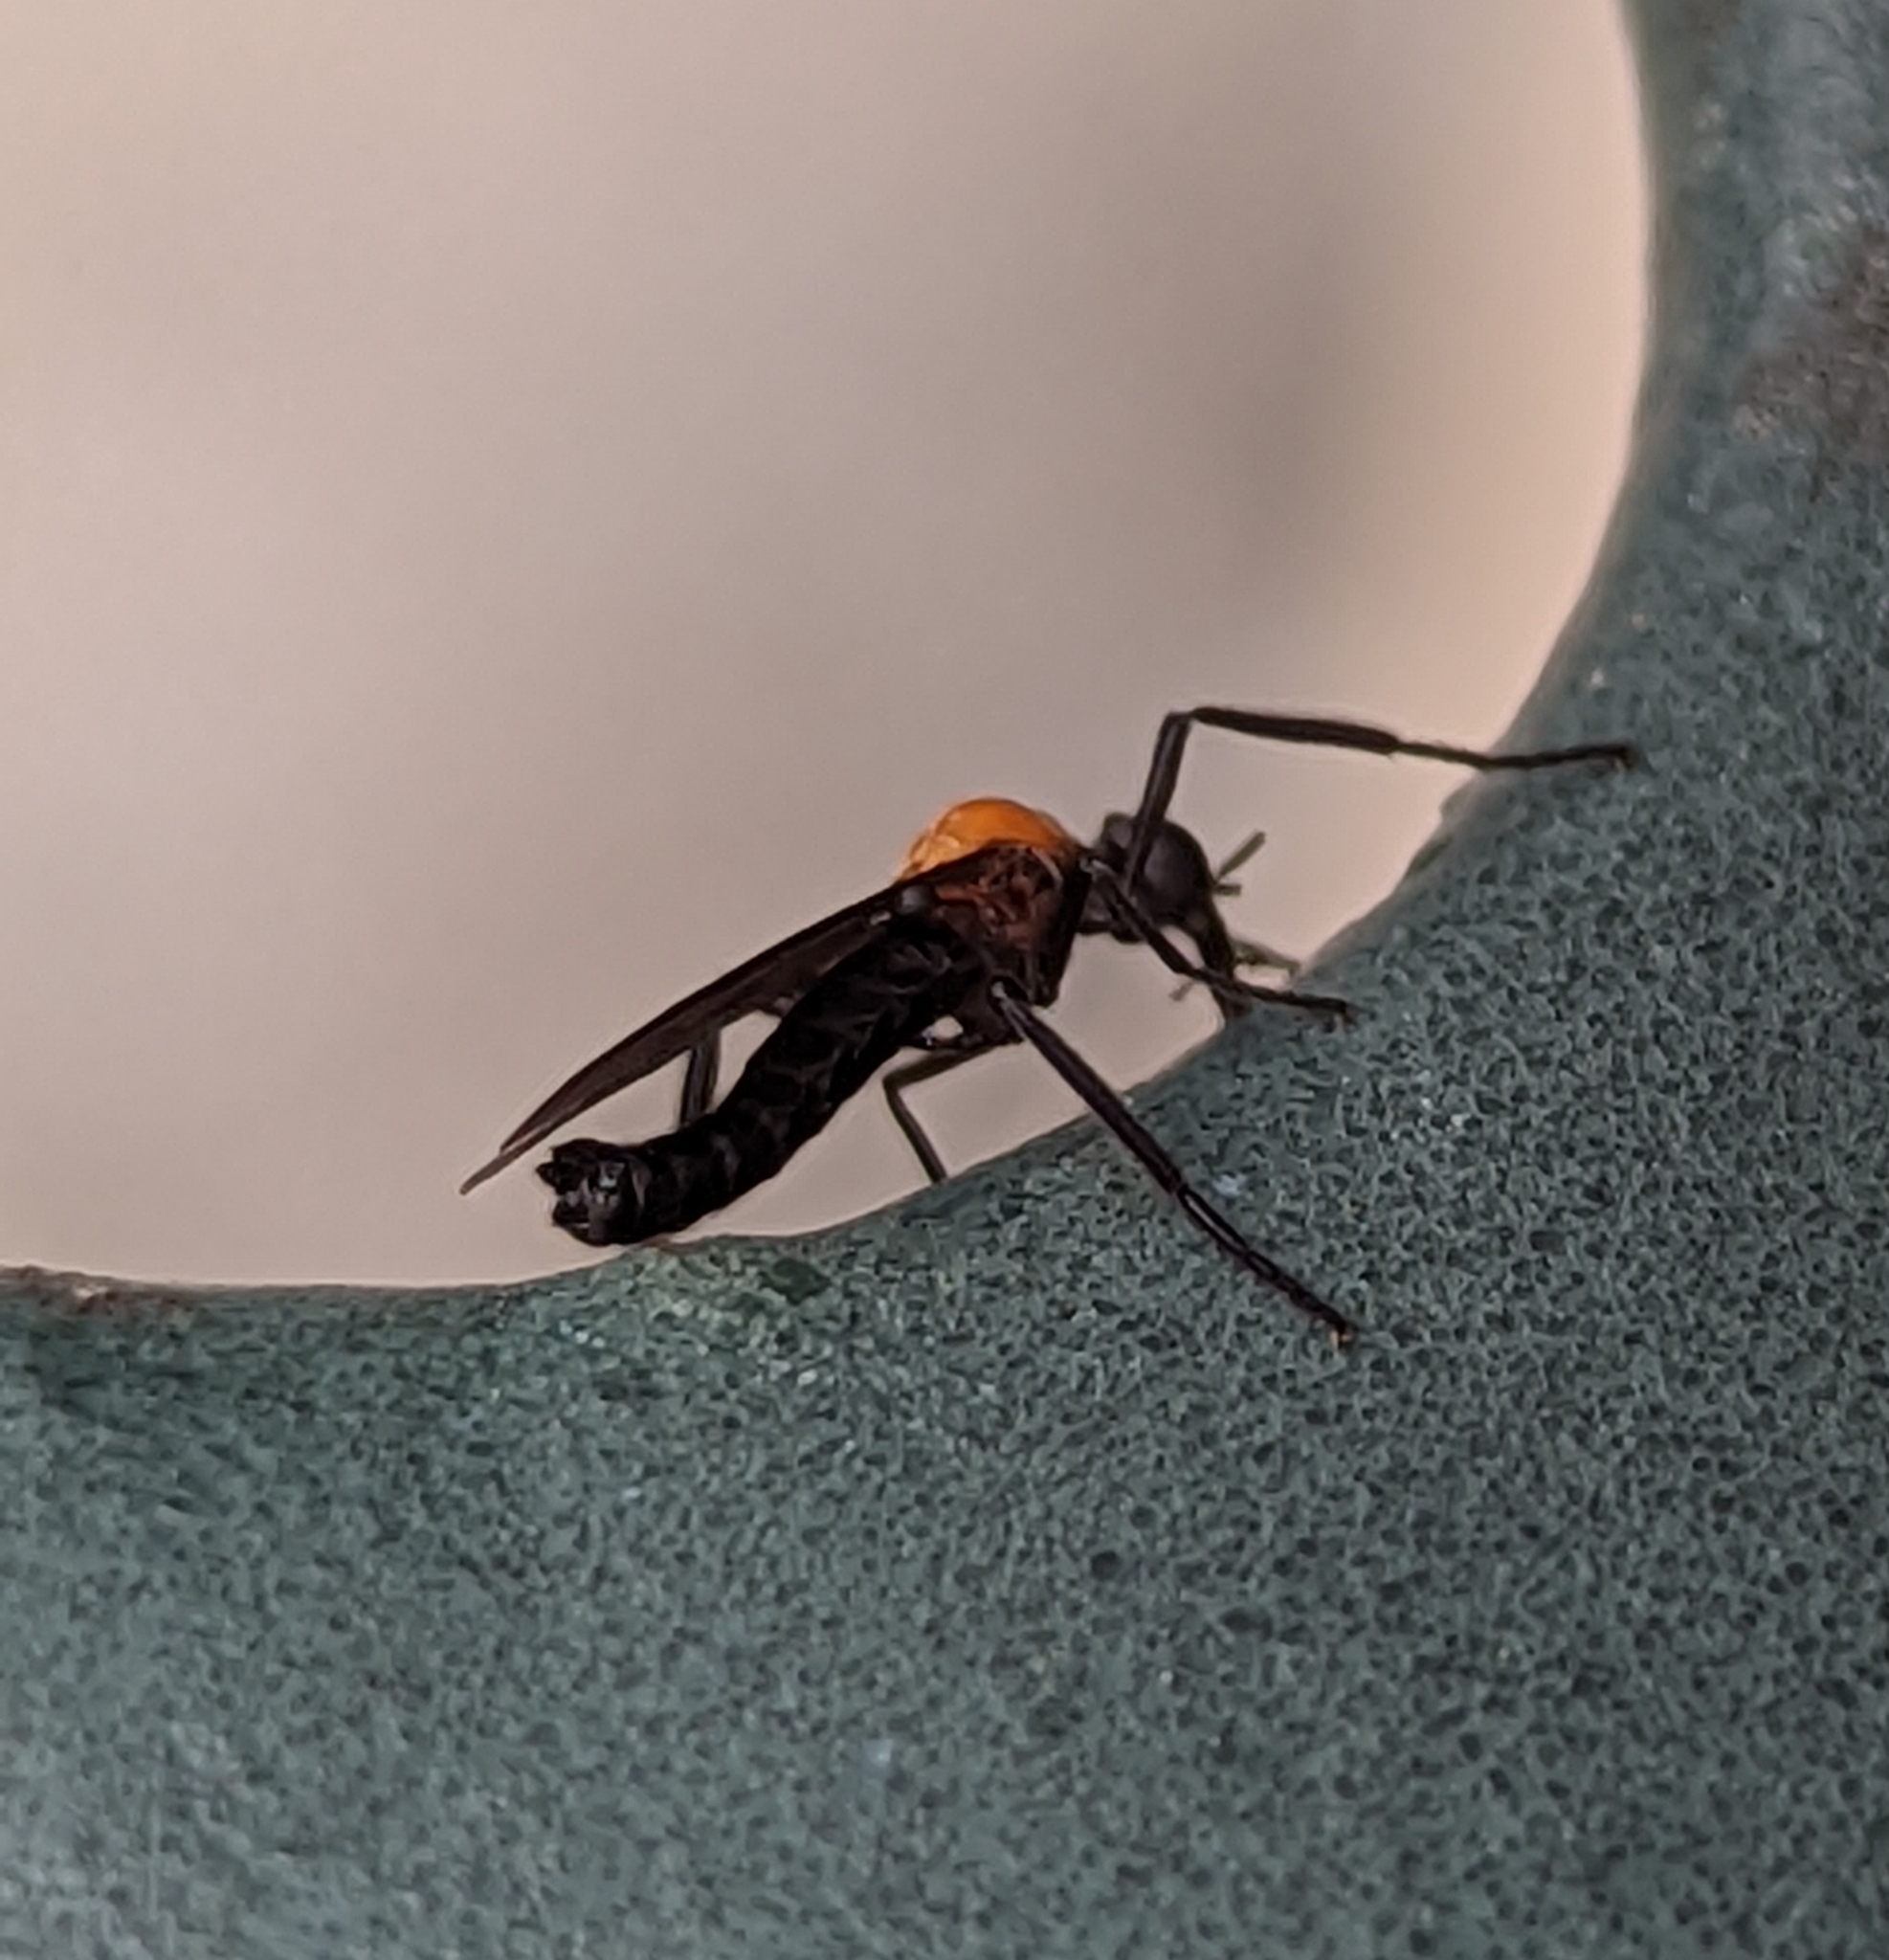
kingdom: Animalia
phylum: Arthropoda
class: Insecta
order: Diptera
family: Bibionidae
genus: Plecia
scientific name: Plecia nearctica
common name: March fly
